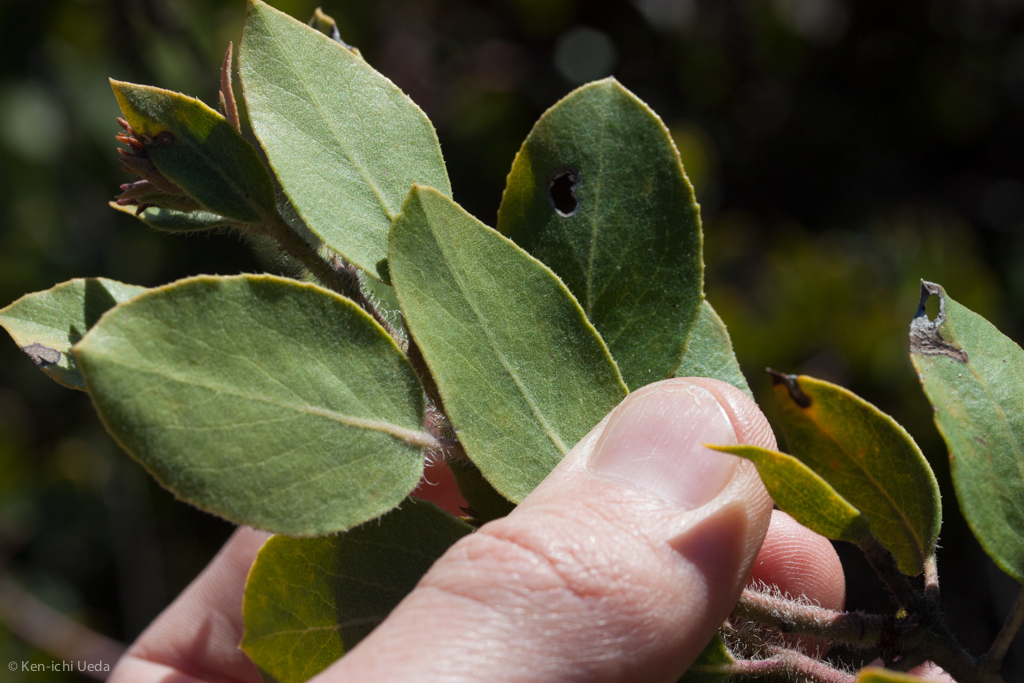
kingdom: Plantae
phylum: Tracheophyta
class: Magnoliopsida
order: Ericales
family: Ericaceae
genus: Arctostaphylos
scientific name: Arctostaphylos glandulosa
